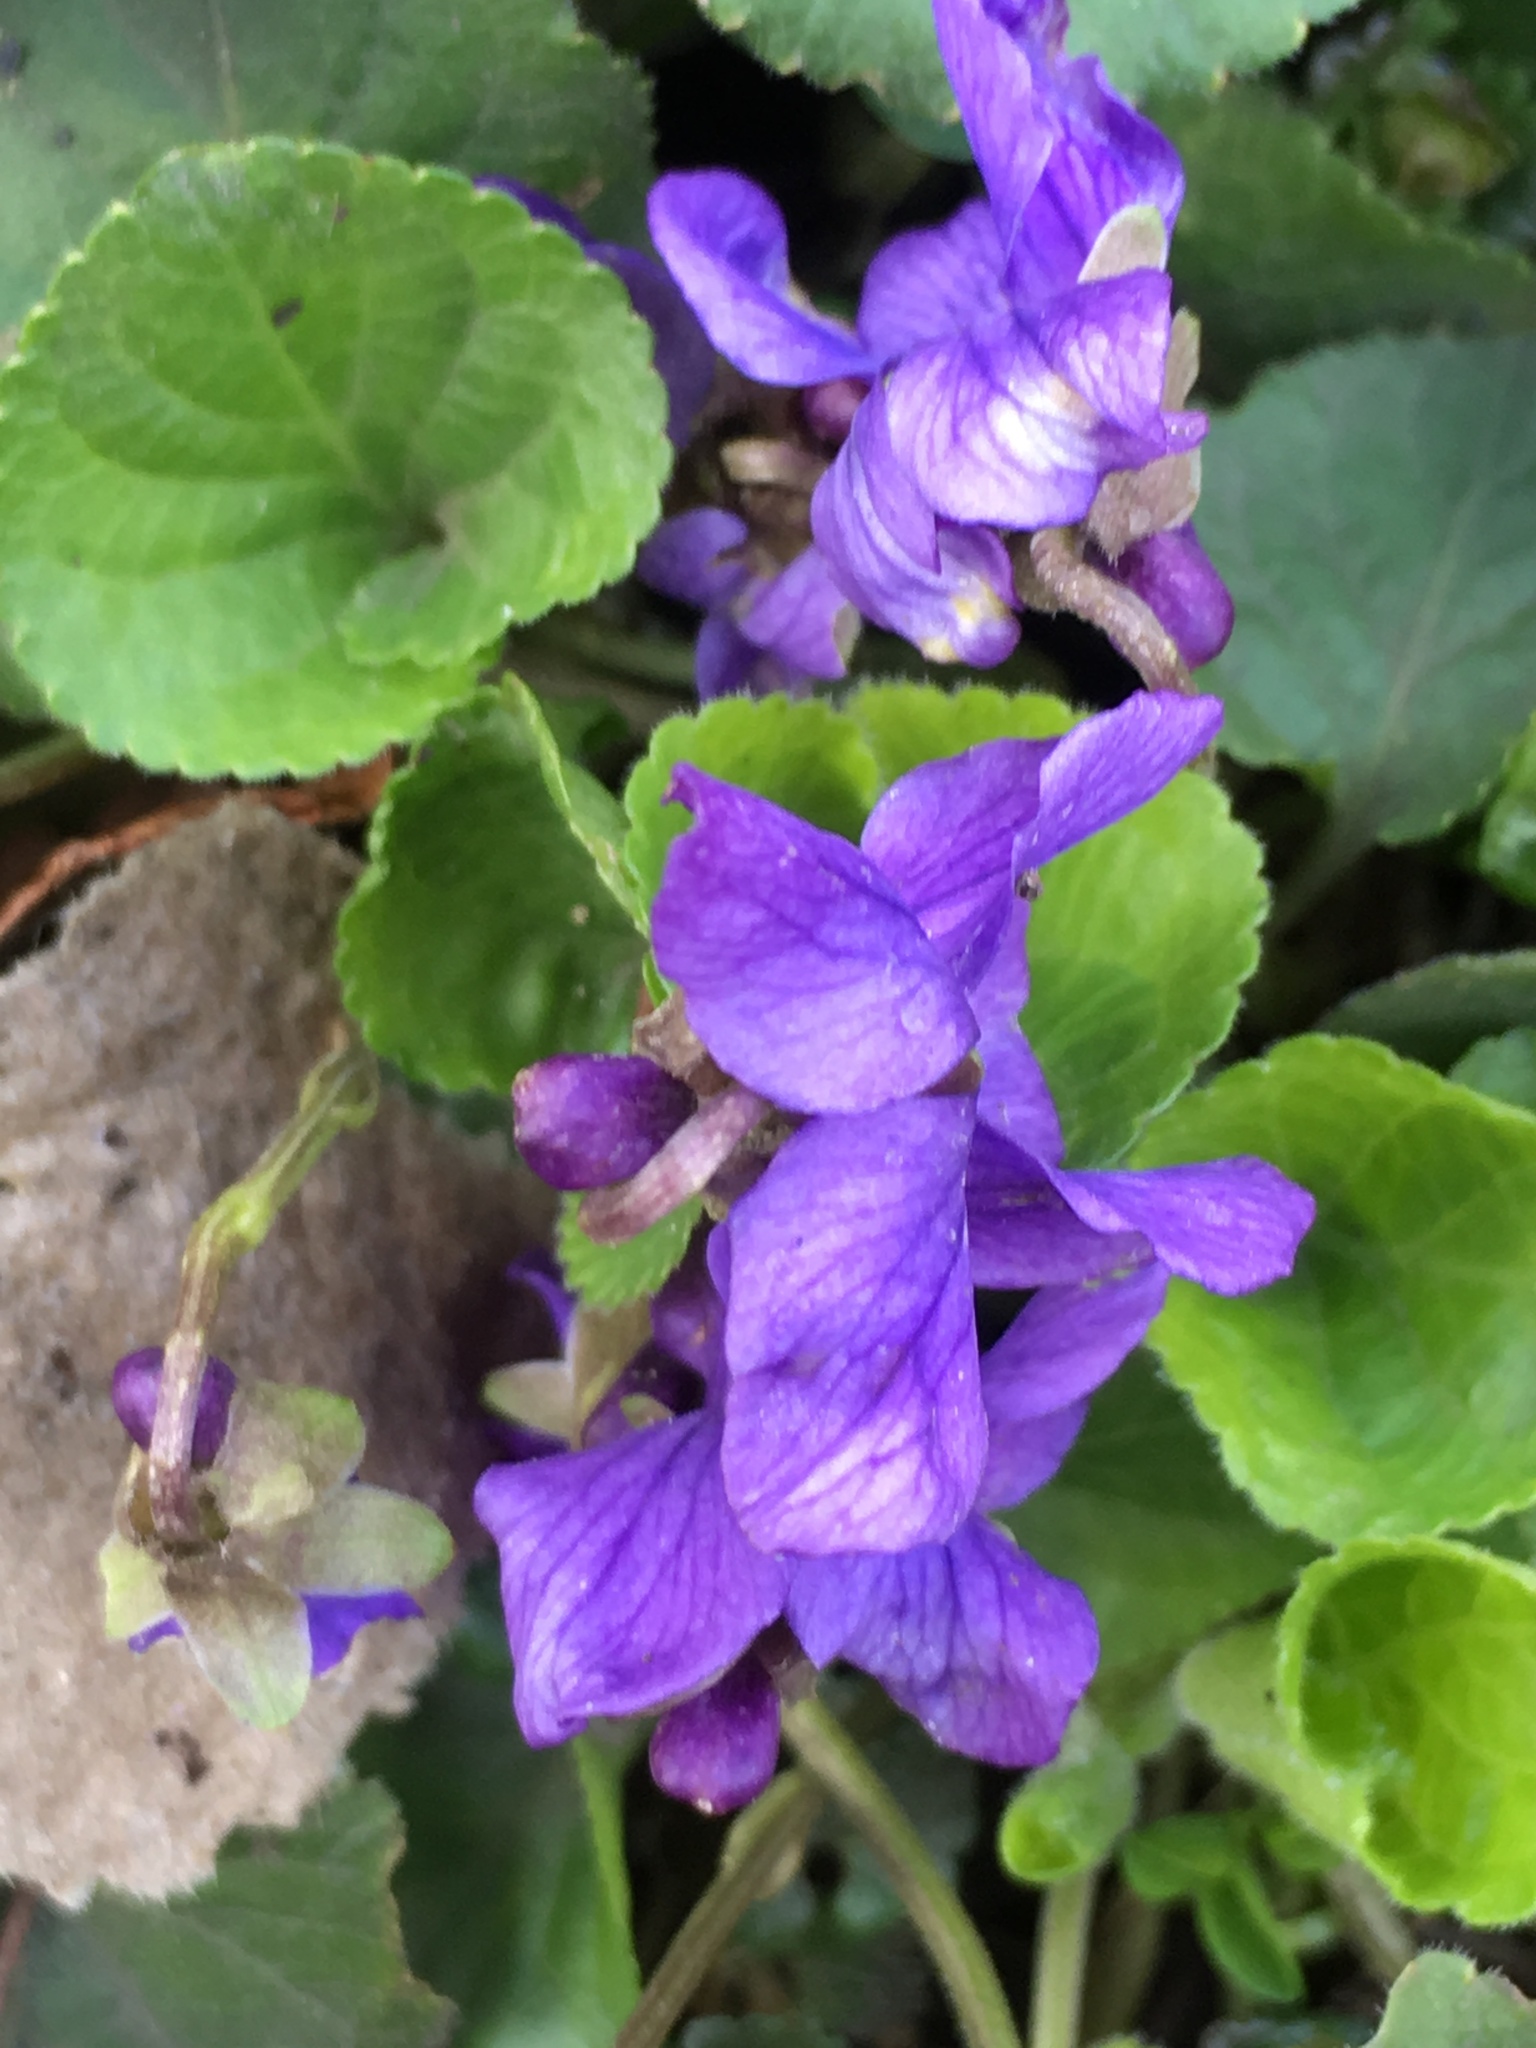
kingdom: Plantae
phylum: Tracheophyta
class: Magnoliopsida
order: Malpighiales
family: Violaceae
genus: Viola
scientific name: Viola odorata
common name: Sweet violet
